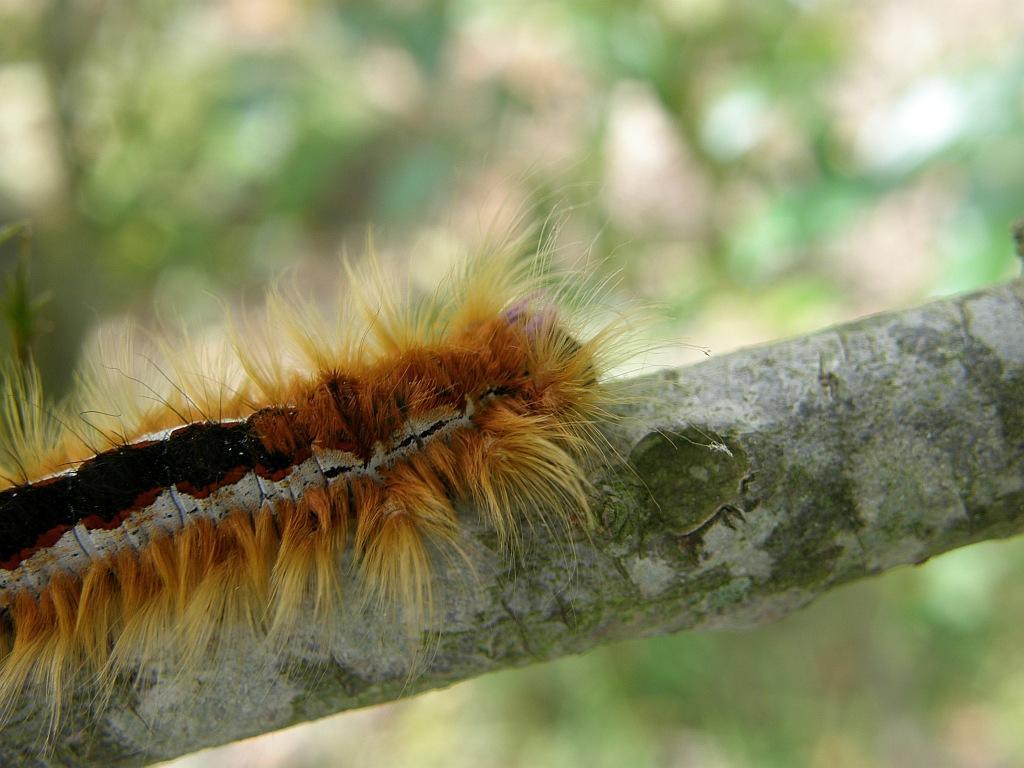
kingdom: Animalia
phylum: Arthropoda
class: Insecta
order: Lepidoptera
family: Lasiocampidae
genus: Eutricha
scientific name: Eutricha capensis
